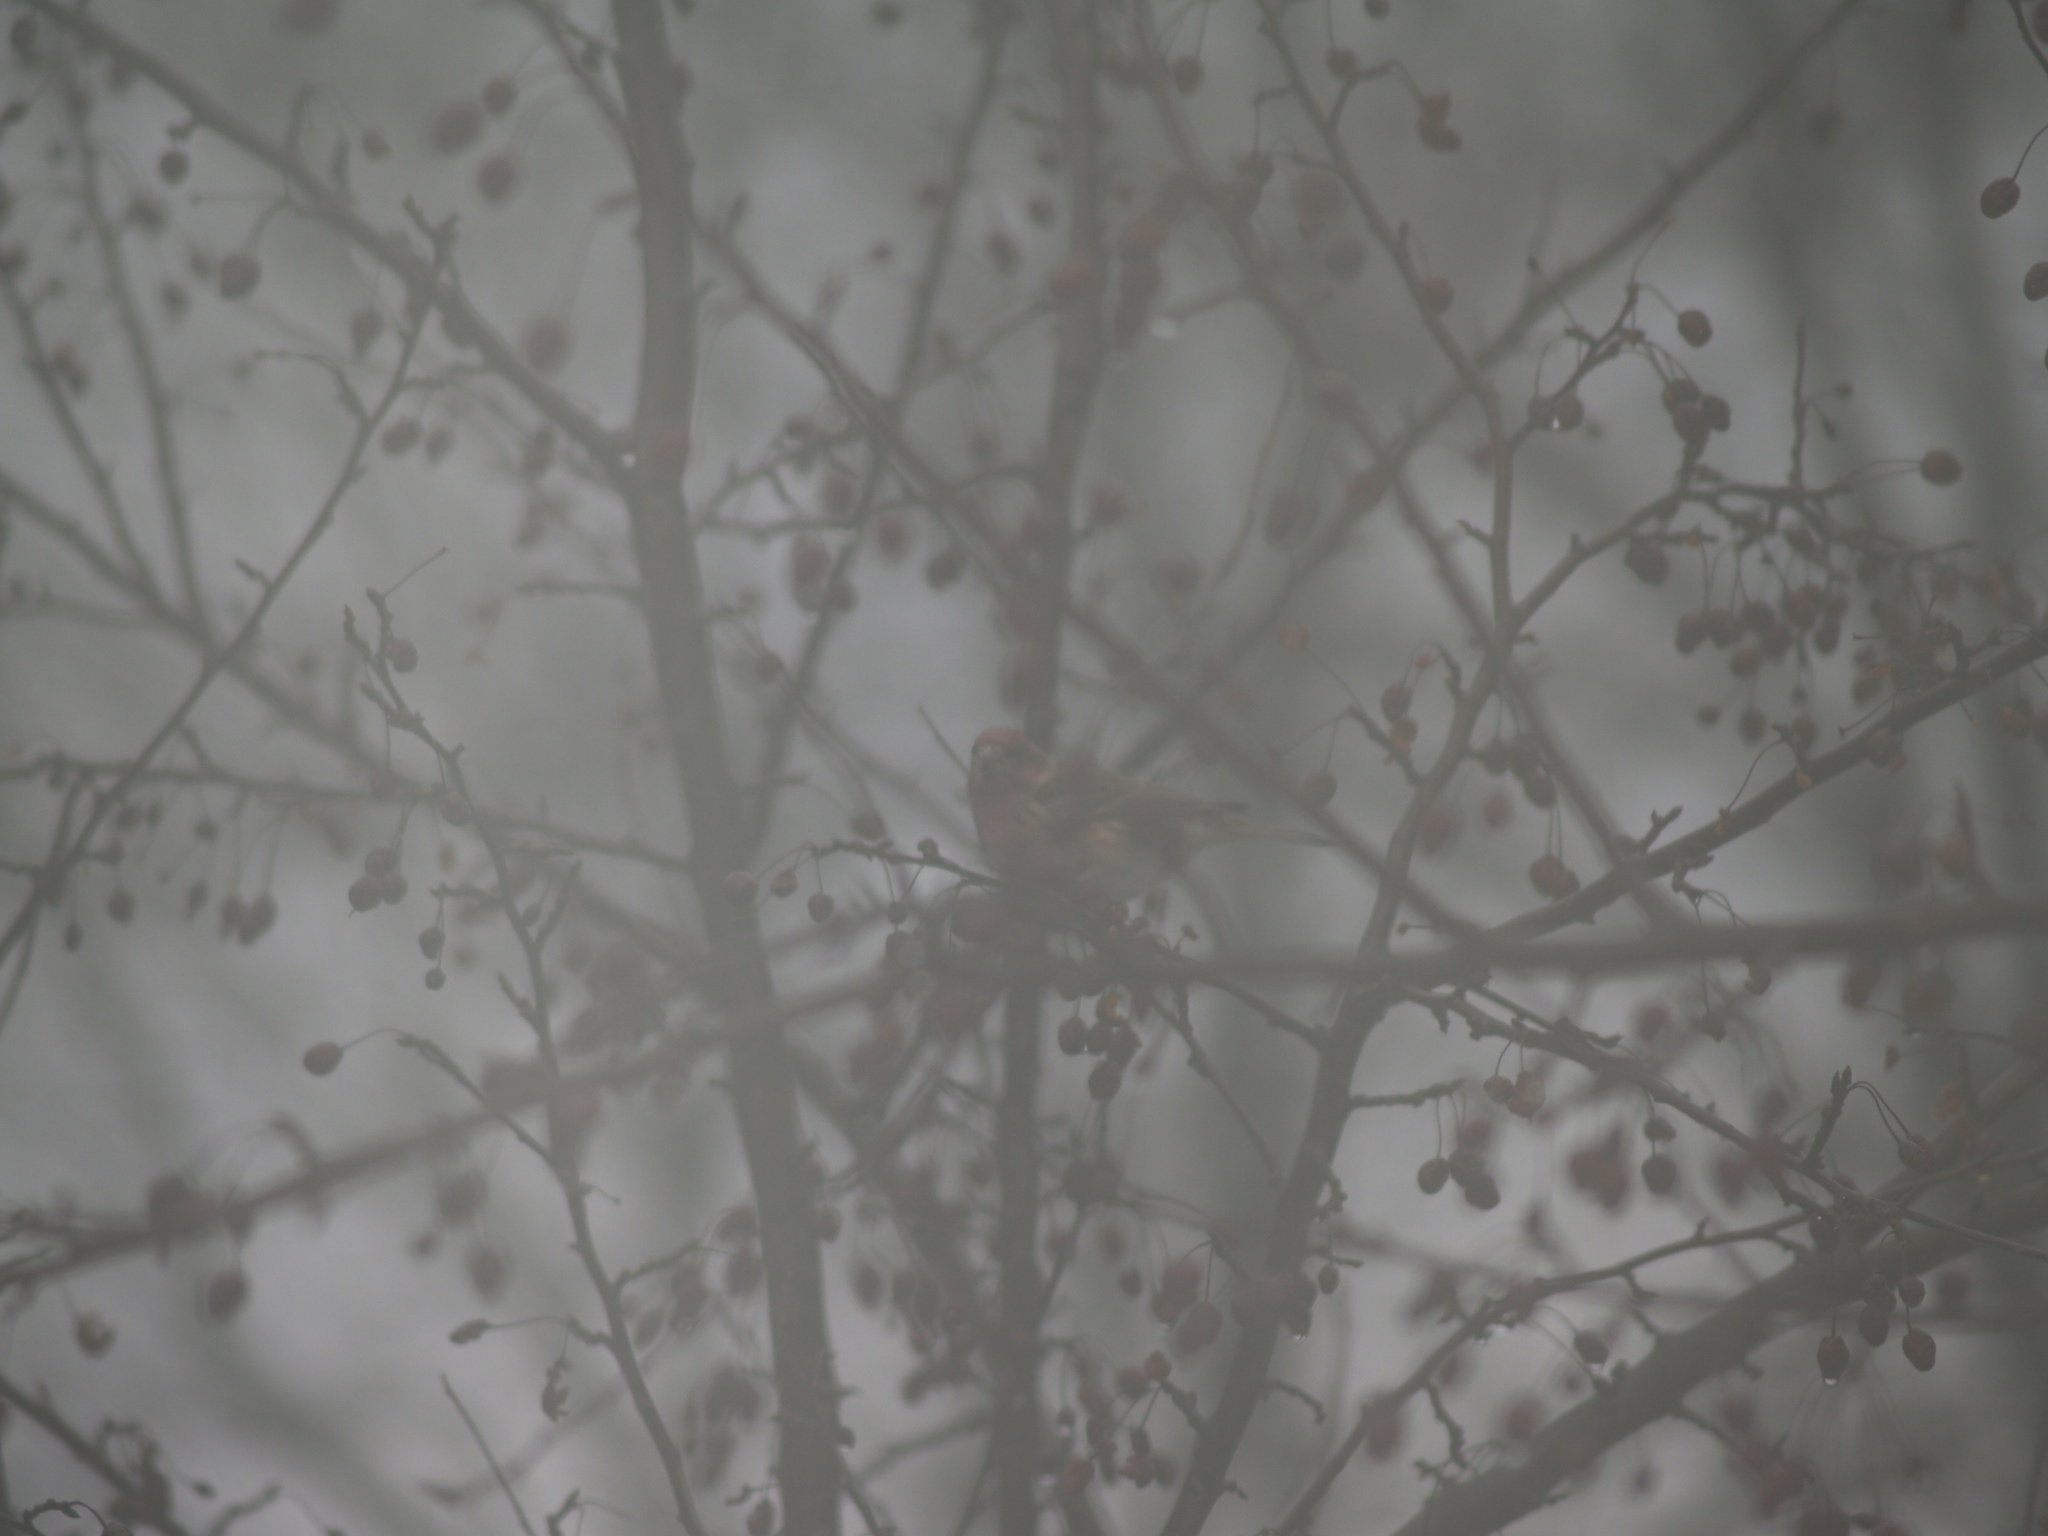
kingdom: Animalia
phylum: Chordata
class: Aves
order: Passeriformes
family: Fringillidae
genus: Haemorhous
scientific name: Haemorhous mexicanus
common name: House finch
